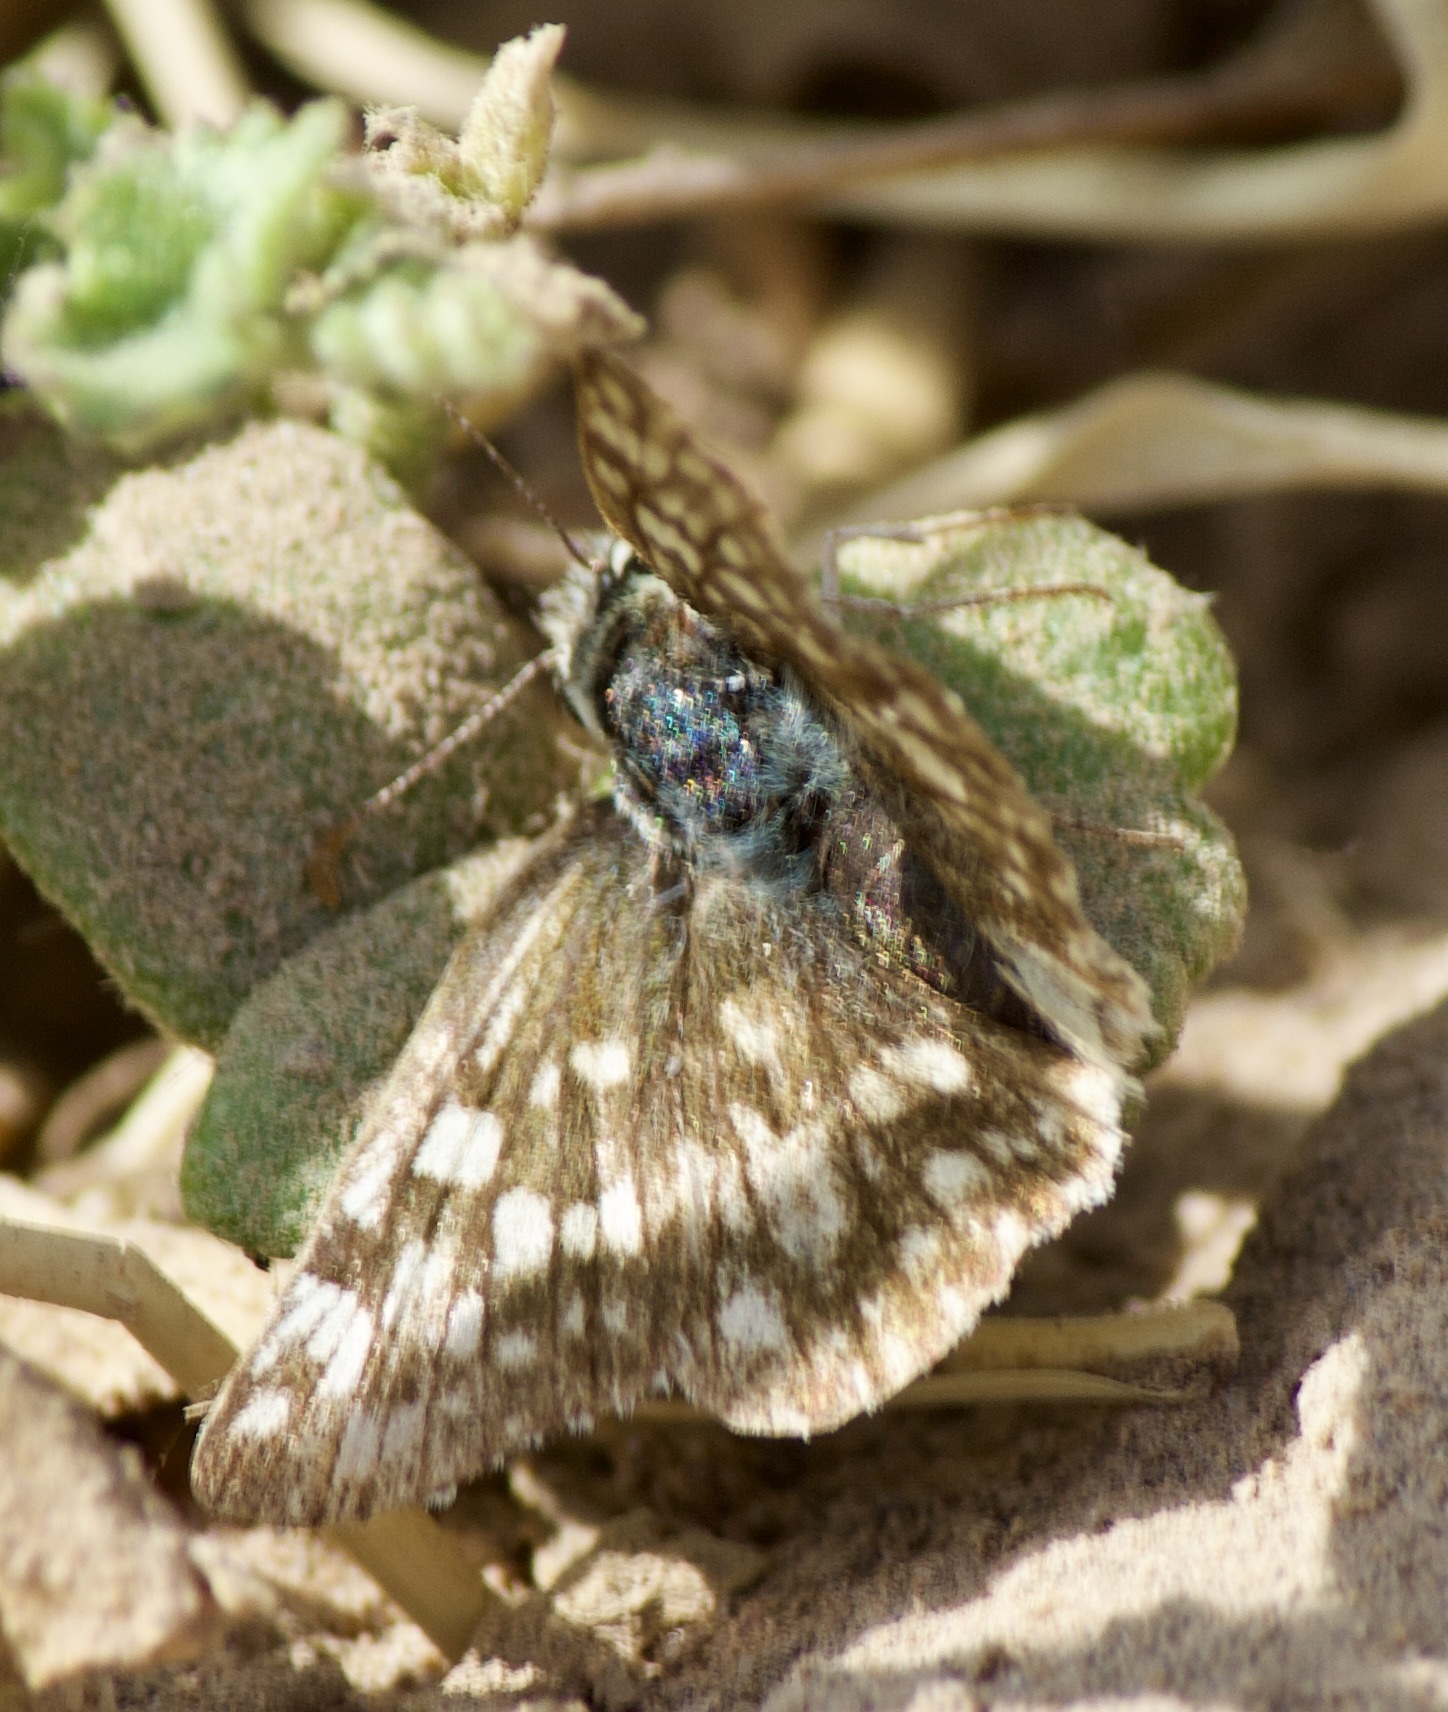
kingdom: Animalia
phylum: Arthropoda
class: Insecta
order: Lepidoptera
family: Hesperiidae
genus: Heliopetes
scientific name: Heliopetes americanus
